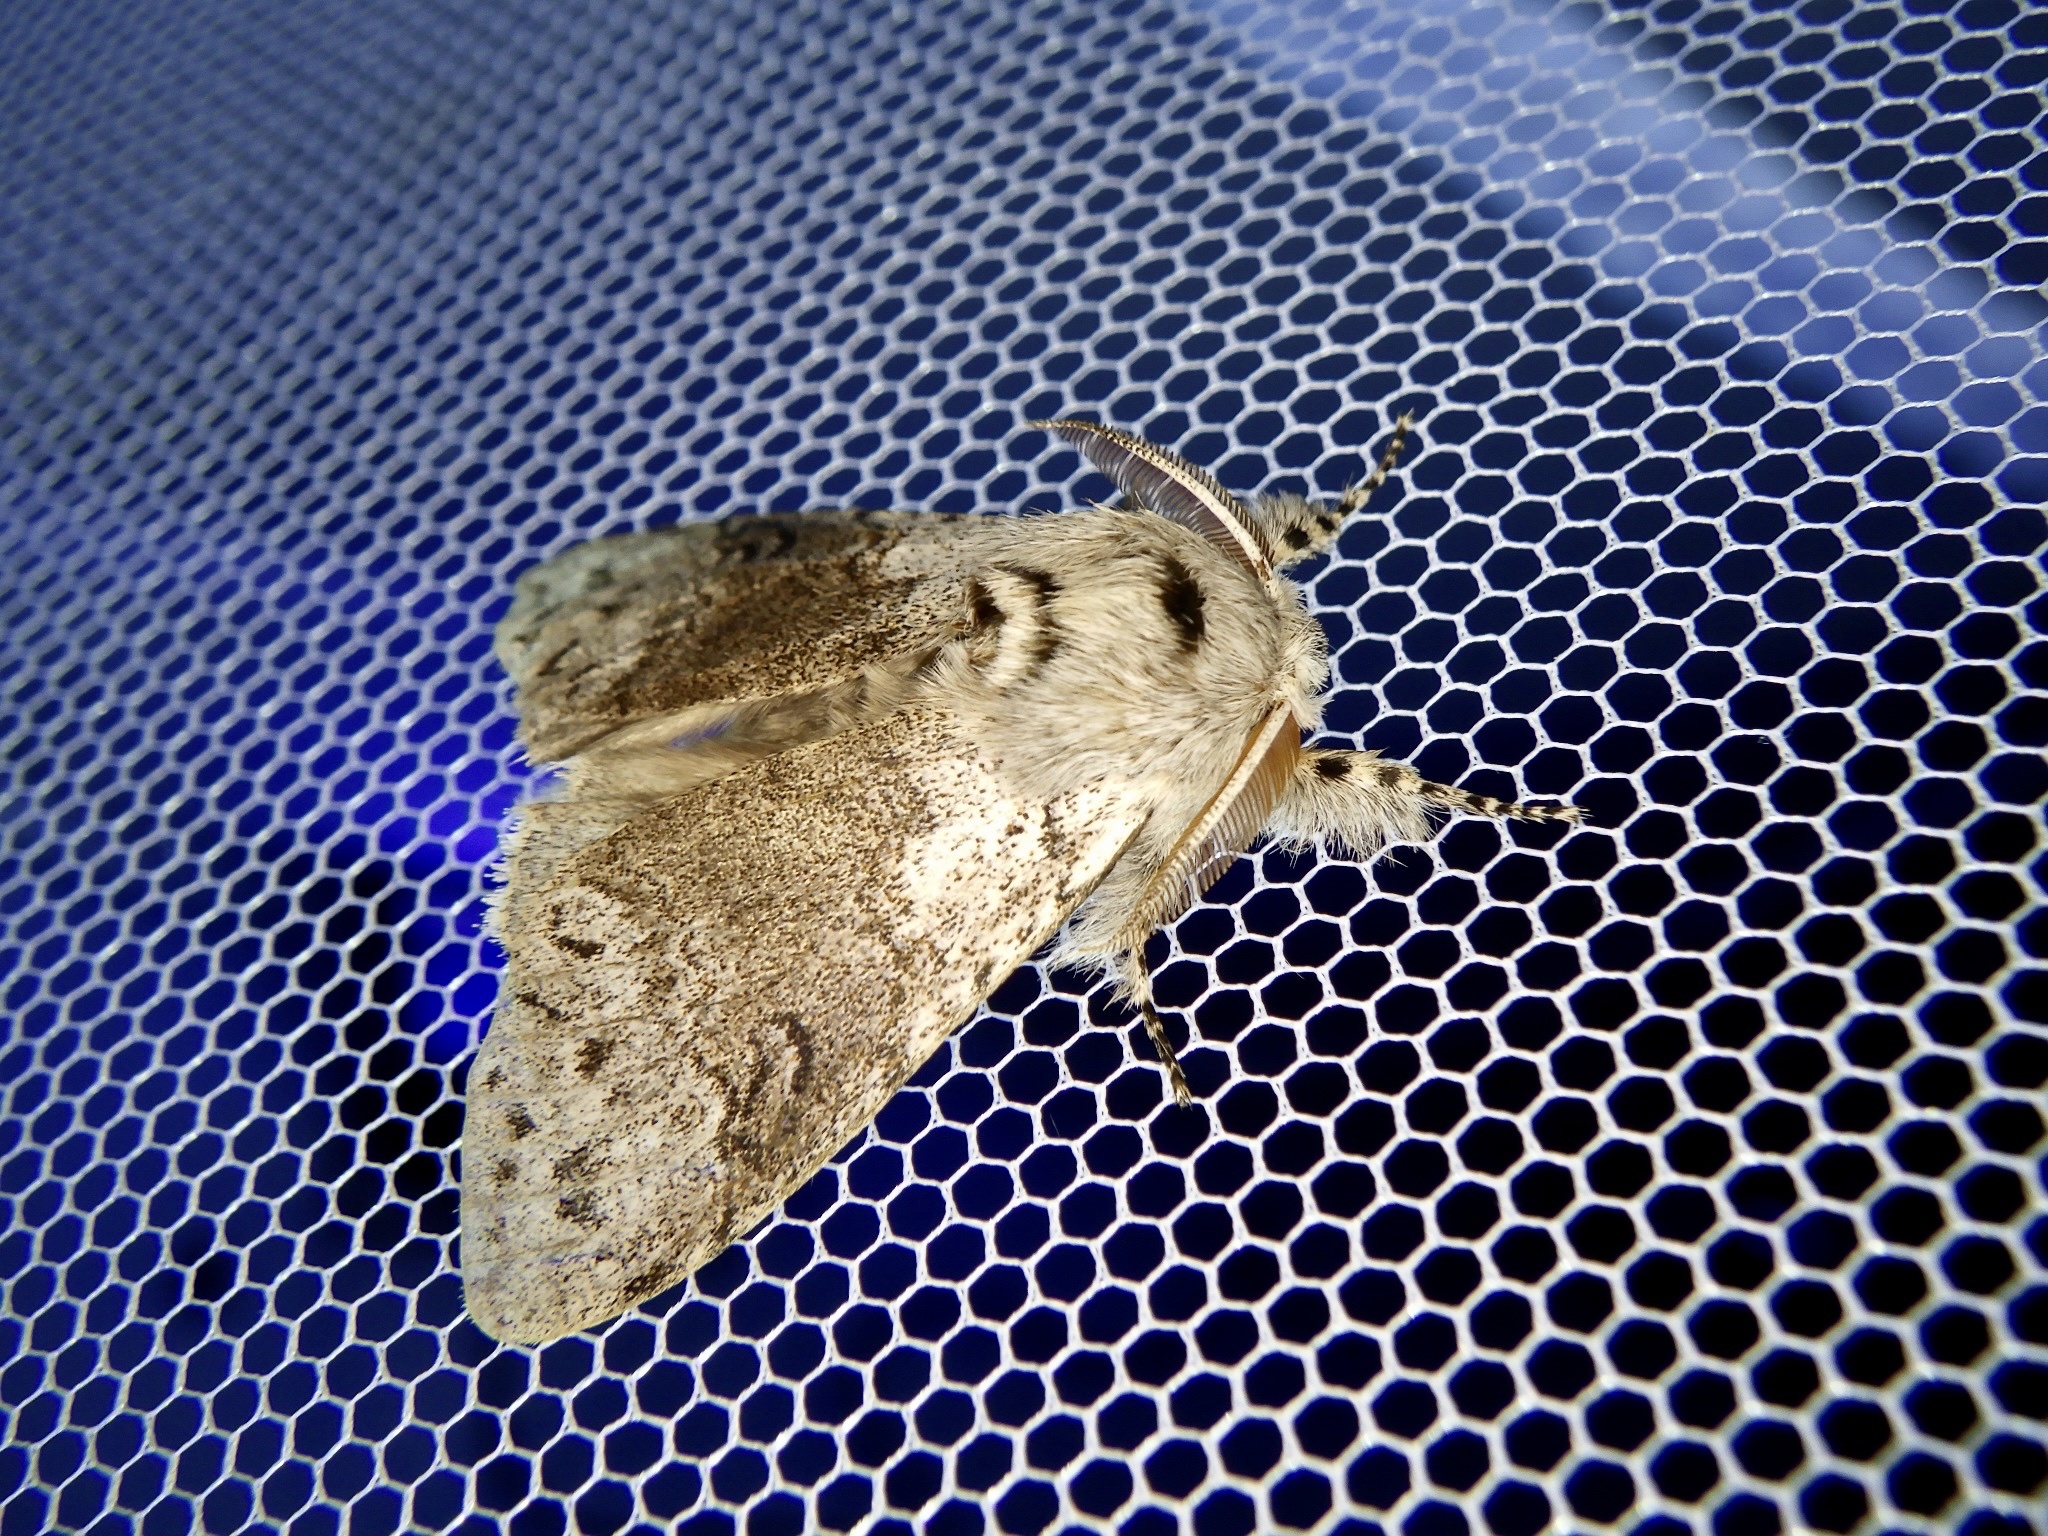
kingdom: Animalia
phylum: Arthropoda
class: Insecta
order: Lepidoptera
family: Erebidae
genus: Calliteara
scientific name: Calliteara
